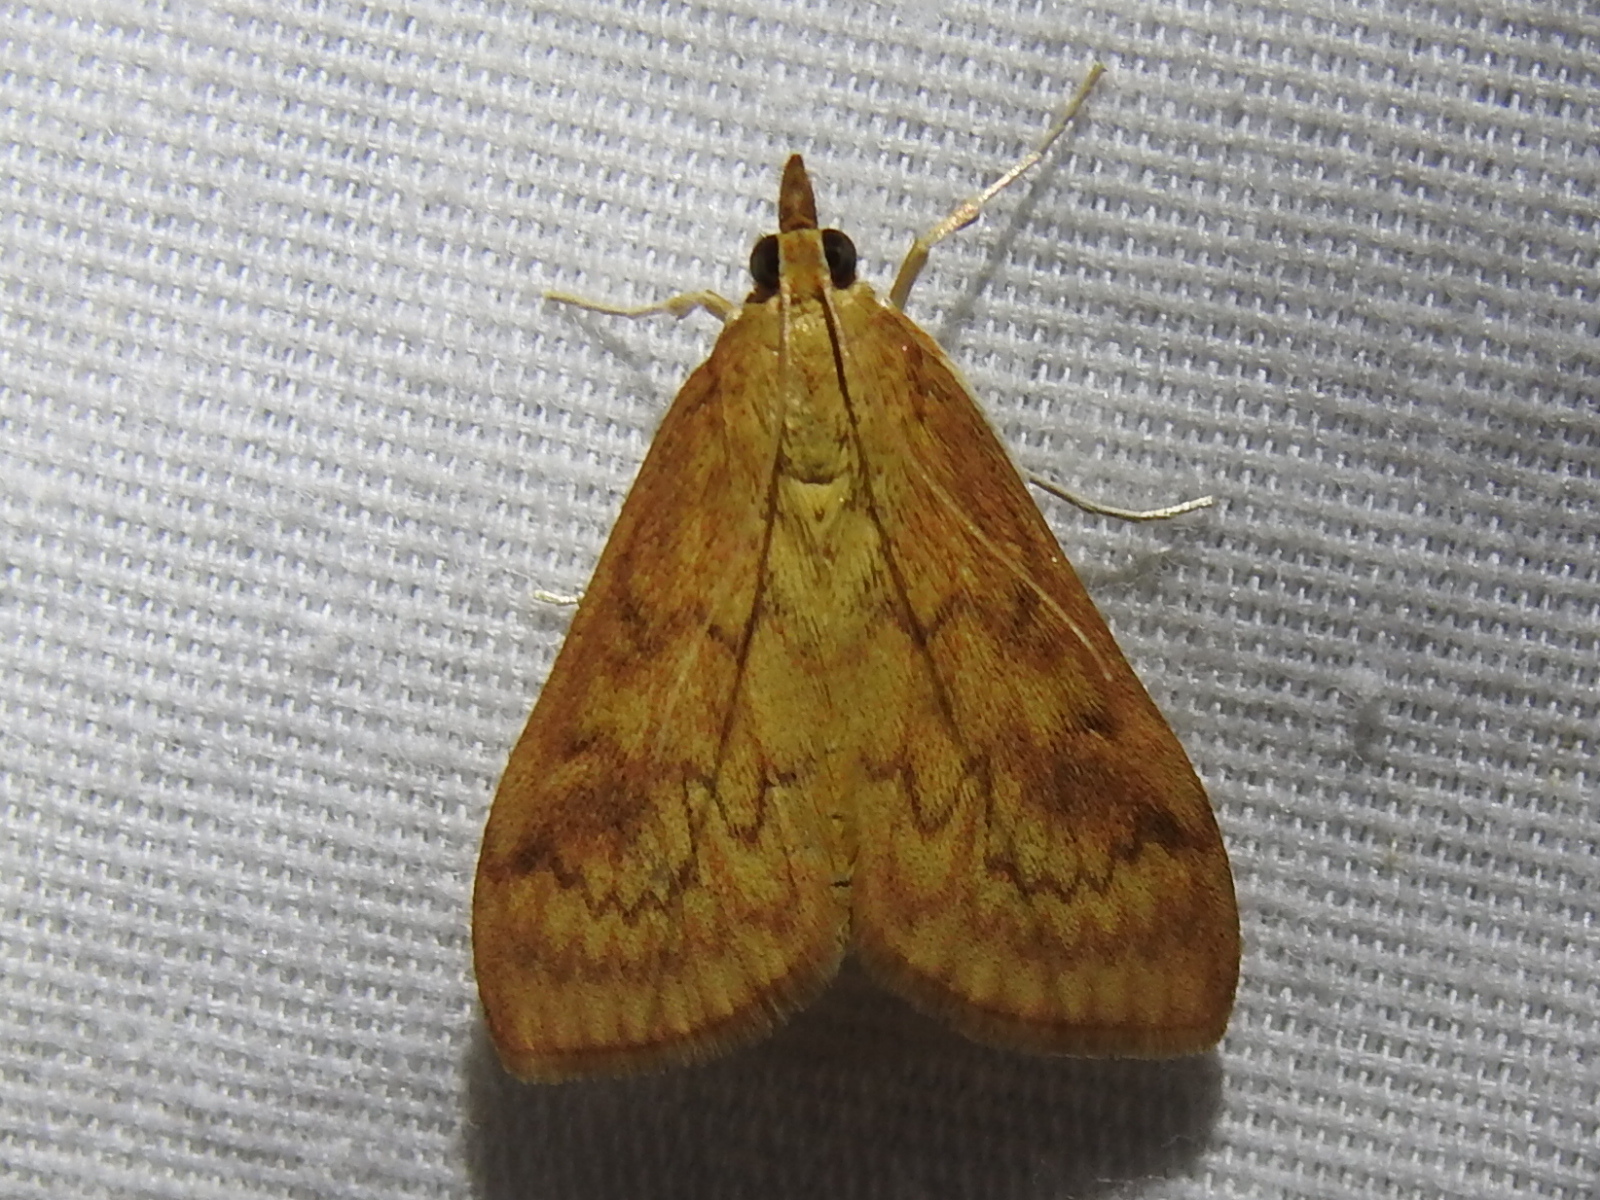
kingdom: Animalia
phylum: Arthropoda
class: Insecta
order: Lepidoptera
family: Crambidae
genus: Ostrinia
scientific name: Ostrinia penitalis
